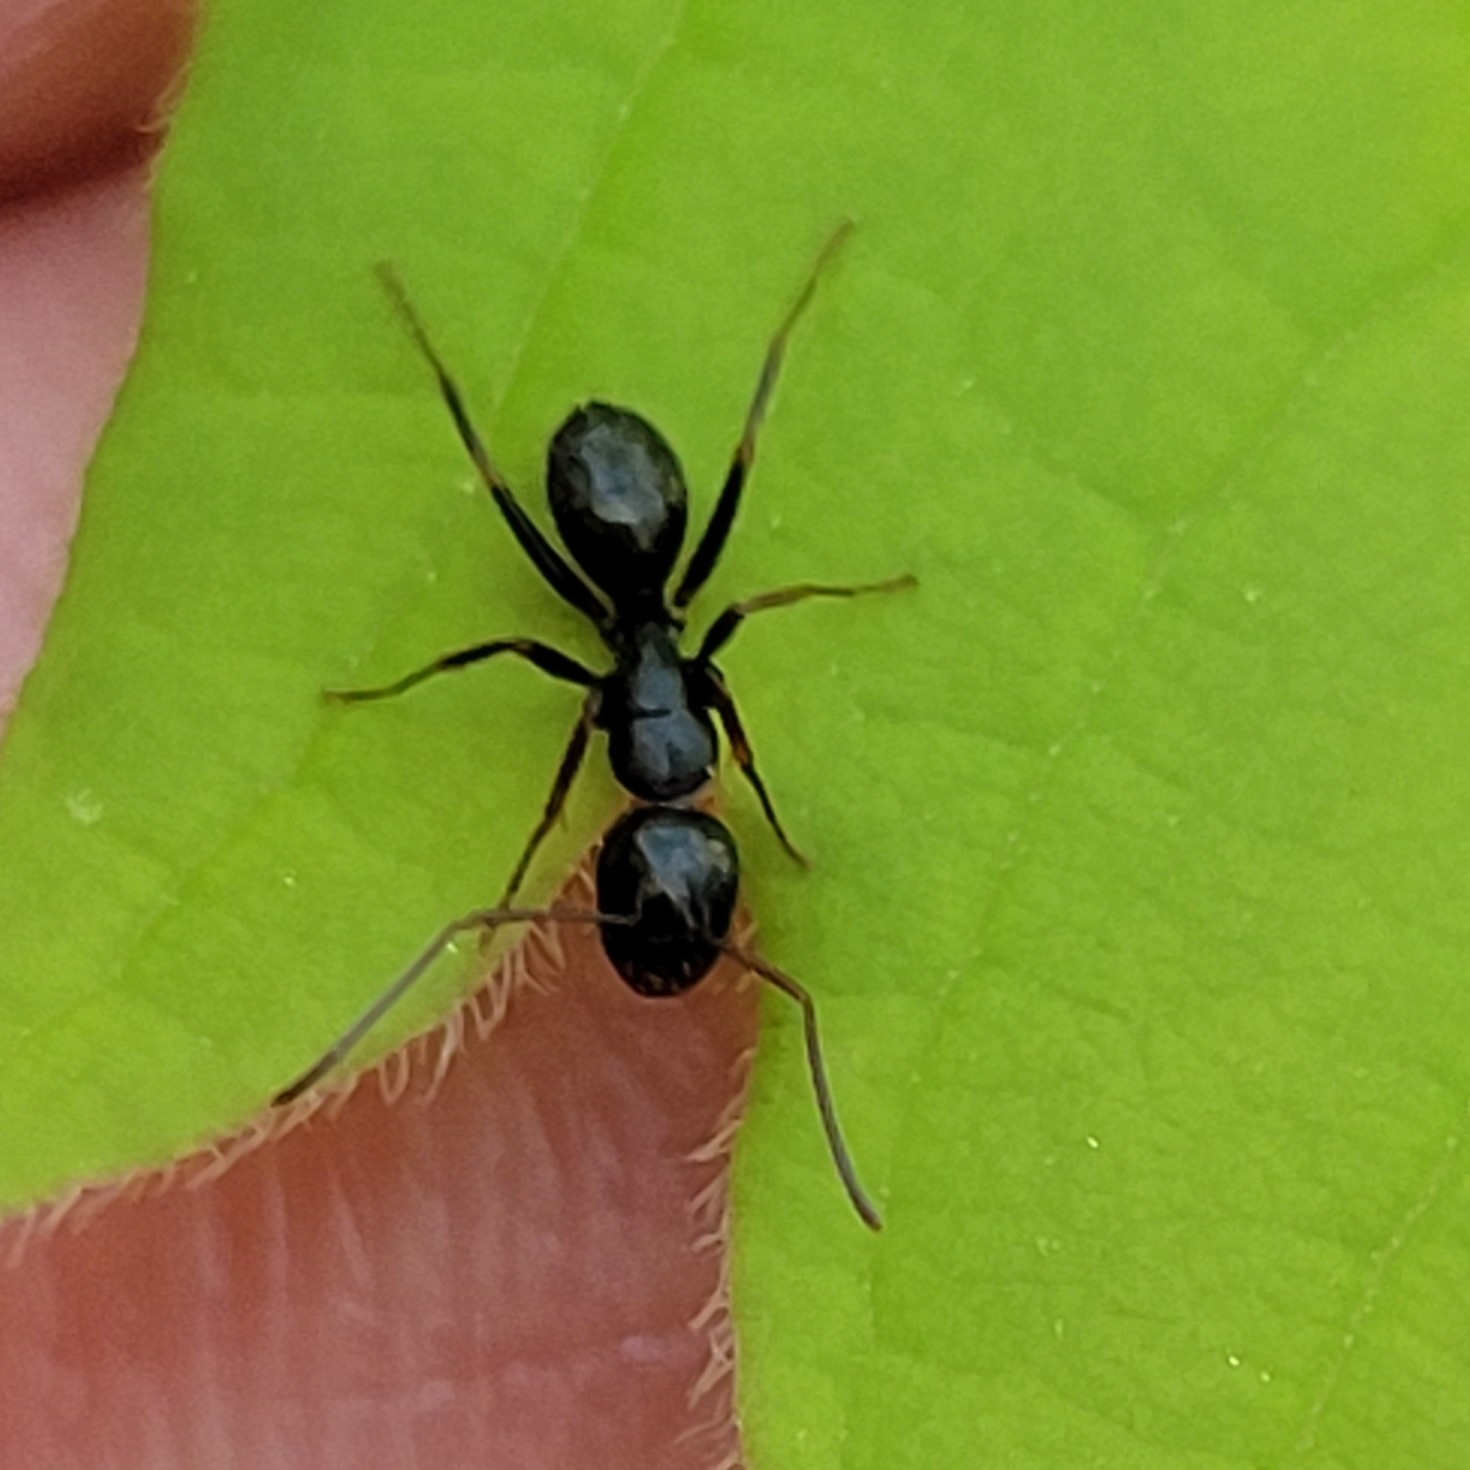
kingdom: Animalia
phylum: Arthropoda
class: Insecta
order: Hymenoptera
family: Formicidae
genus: Camponotus
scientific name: Camponotus nearcticus
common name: Smaller carpenter ant
